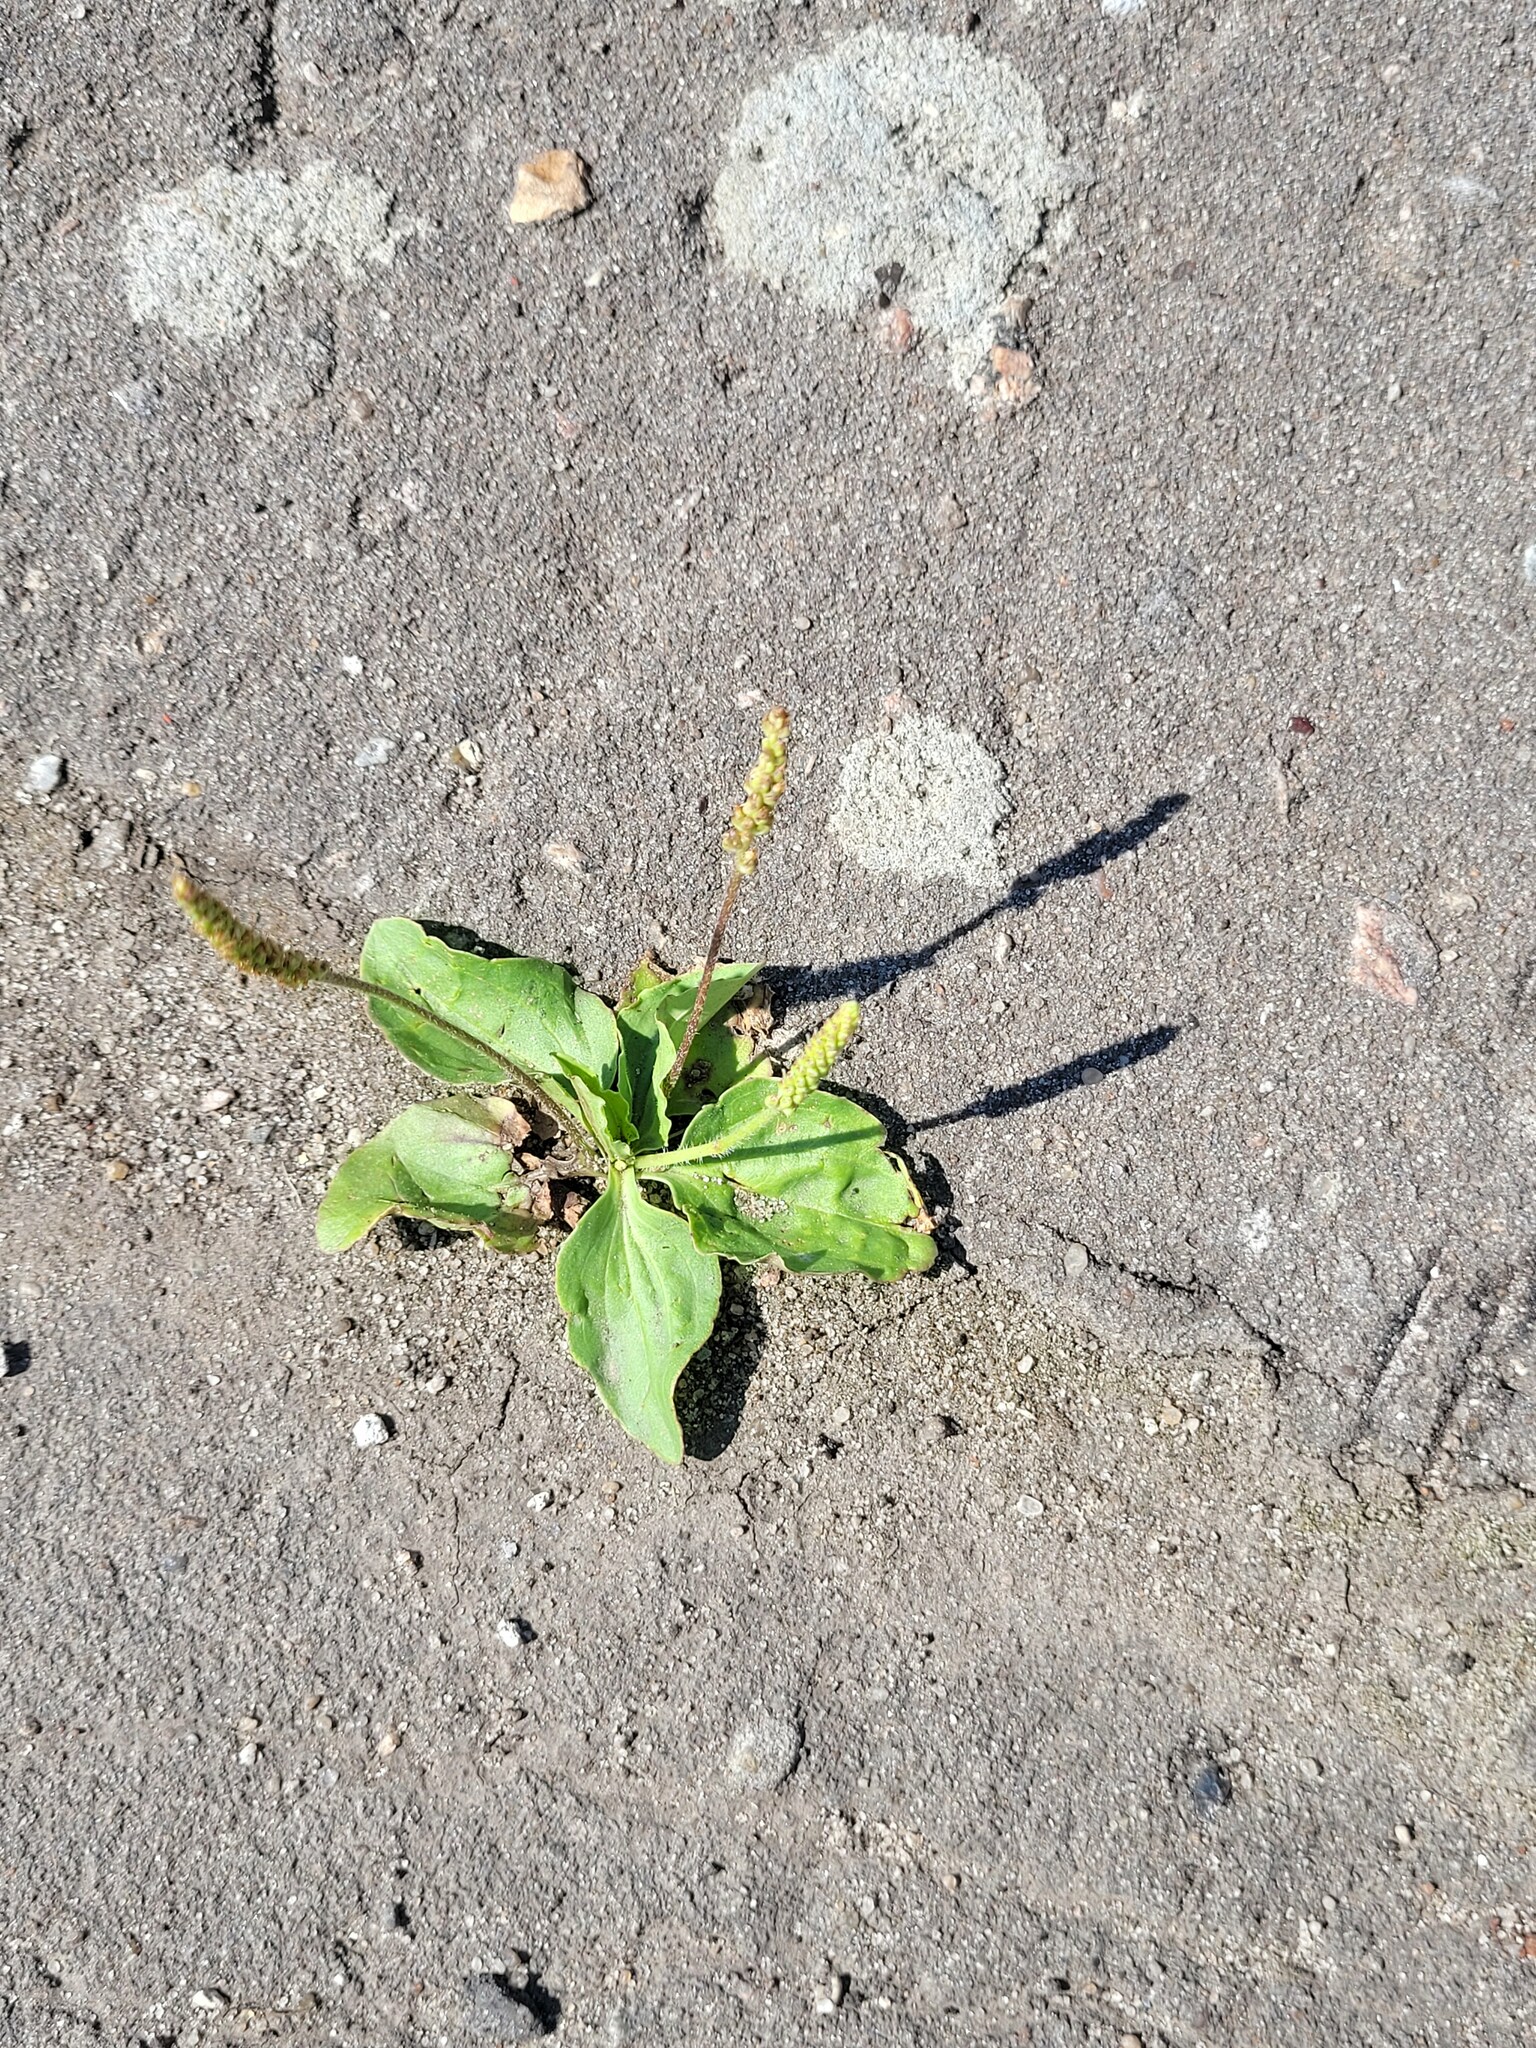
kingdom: Plantae
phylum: Tracheophyta
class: Magnoliopsida
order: Lamiales
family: Plantaginaceae
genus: Plantago
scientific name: Plantago major
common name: Common plantain
